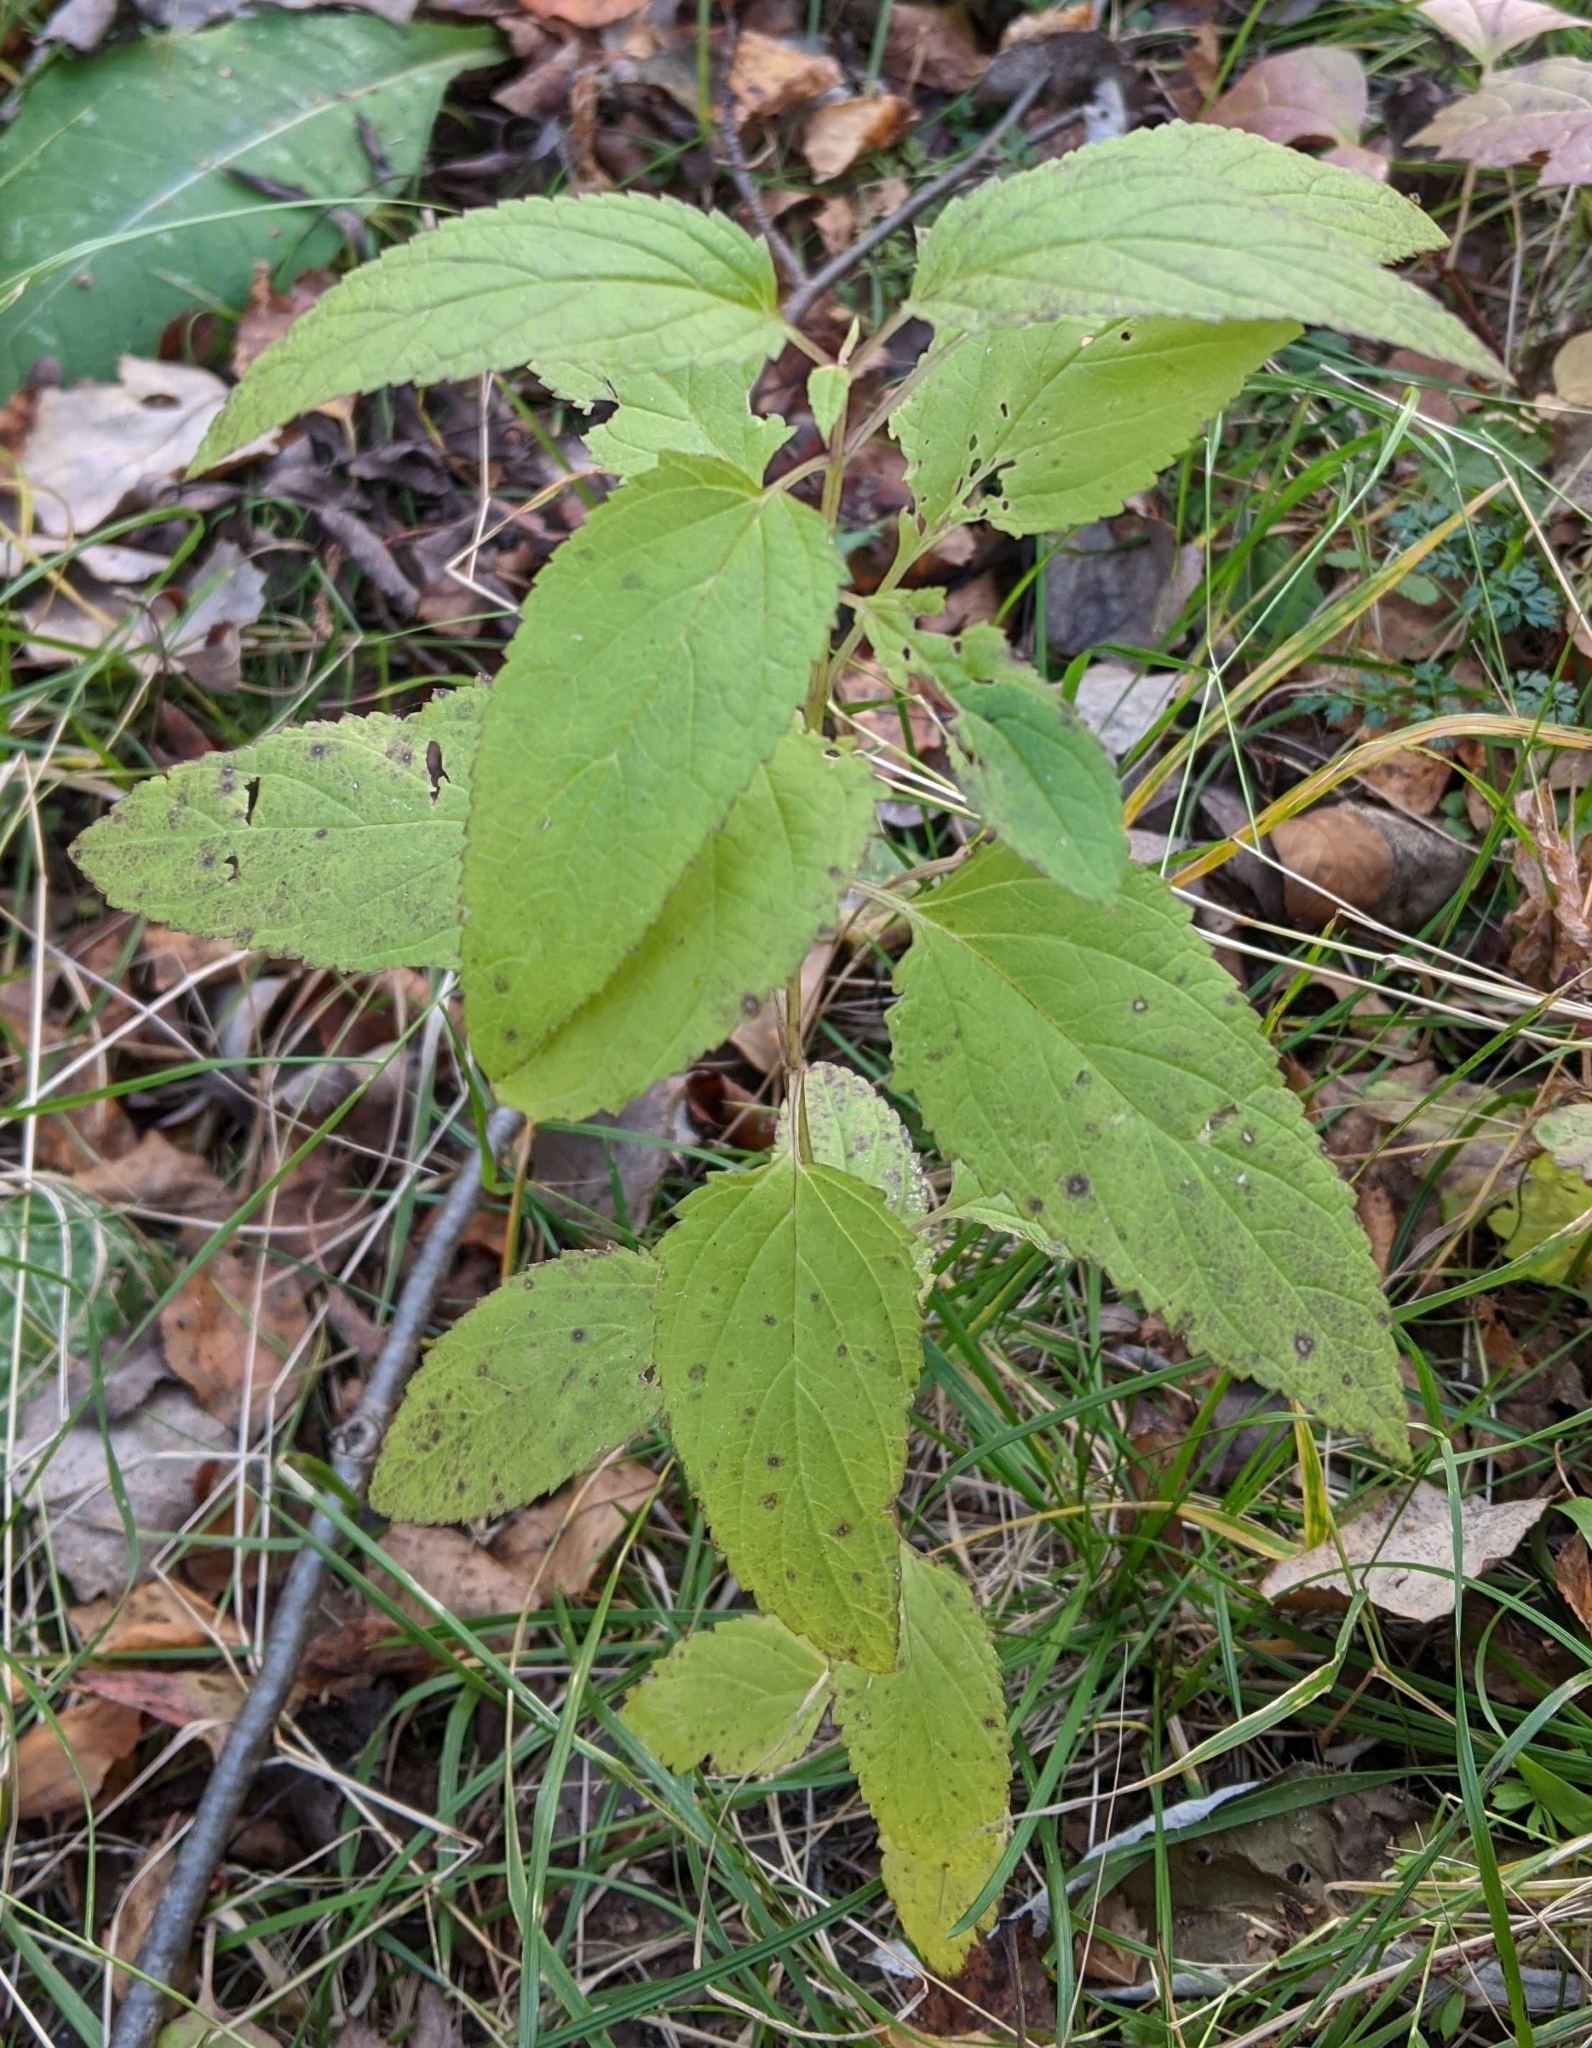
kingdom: Plantae
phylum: Tracheophyta
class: Magnoliopsida
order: Lamiales
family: Scrophulariaceae
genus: Scrophularia
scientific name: Scrophularia nodosa
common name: Common figwort
